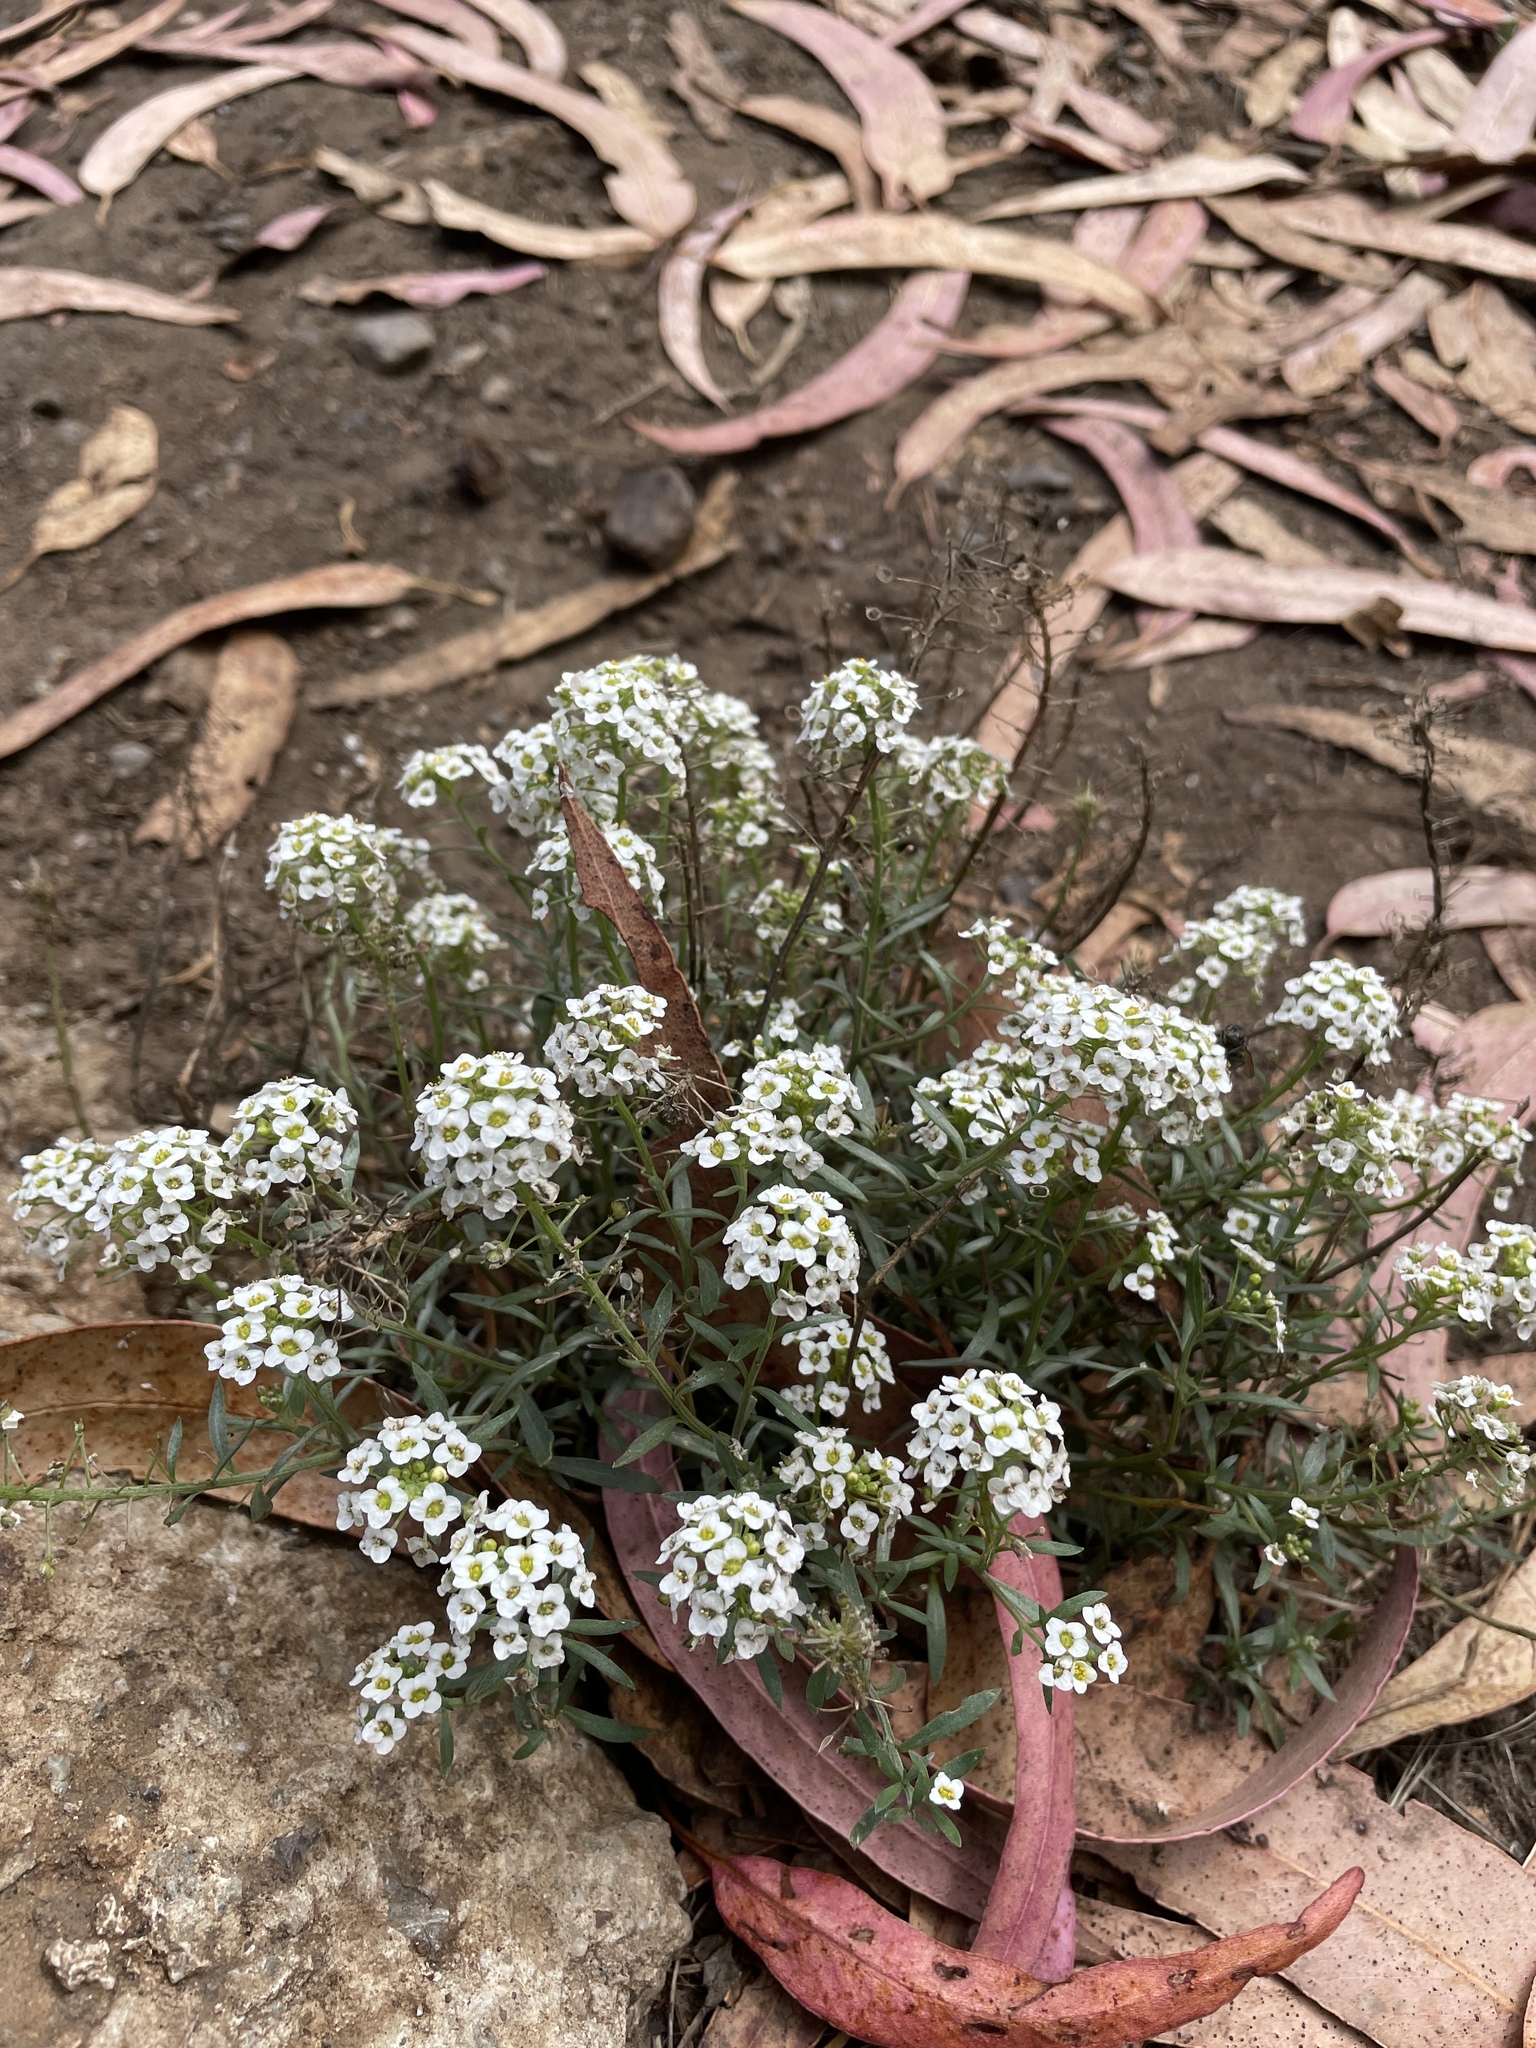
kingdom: Plantae
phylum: Tracheophyta
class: Magnoliopsida
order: Brassicales
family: Brassicaceae
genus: Lobularia
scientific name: Lobularia maritima
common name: Sweet alison
